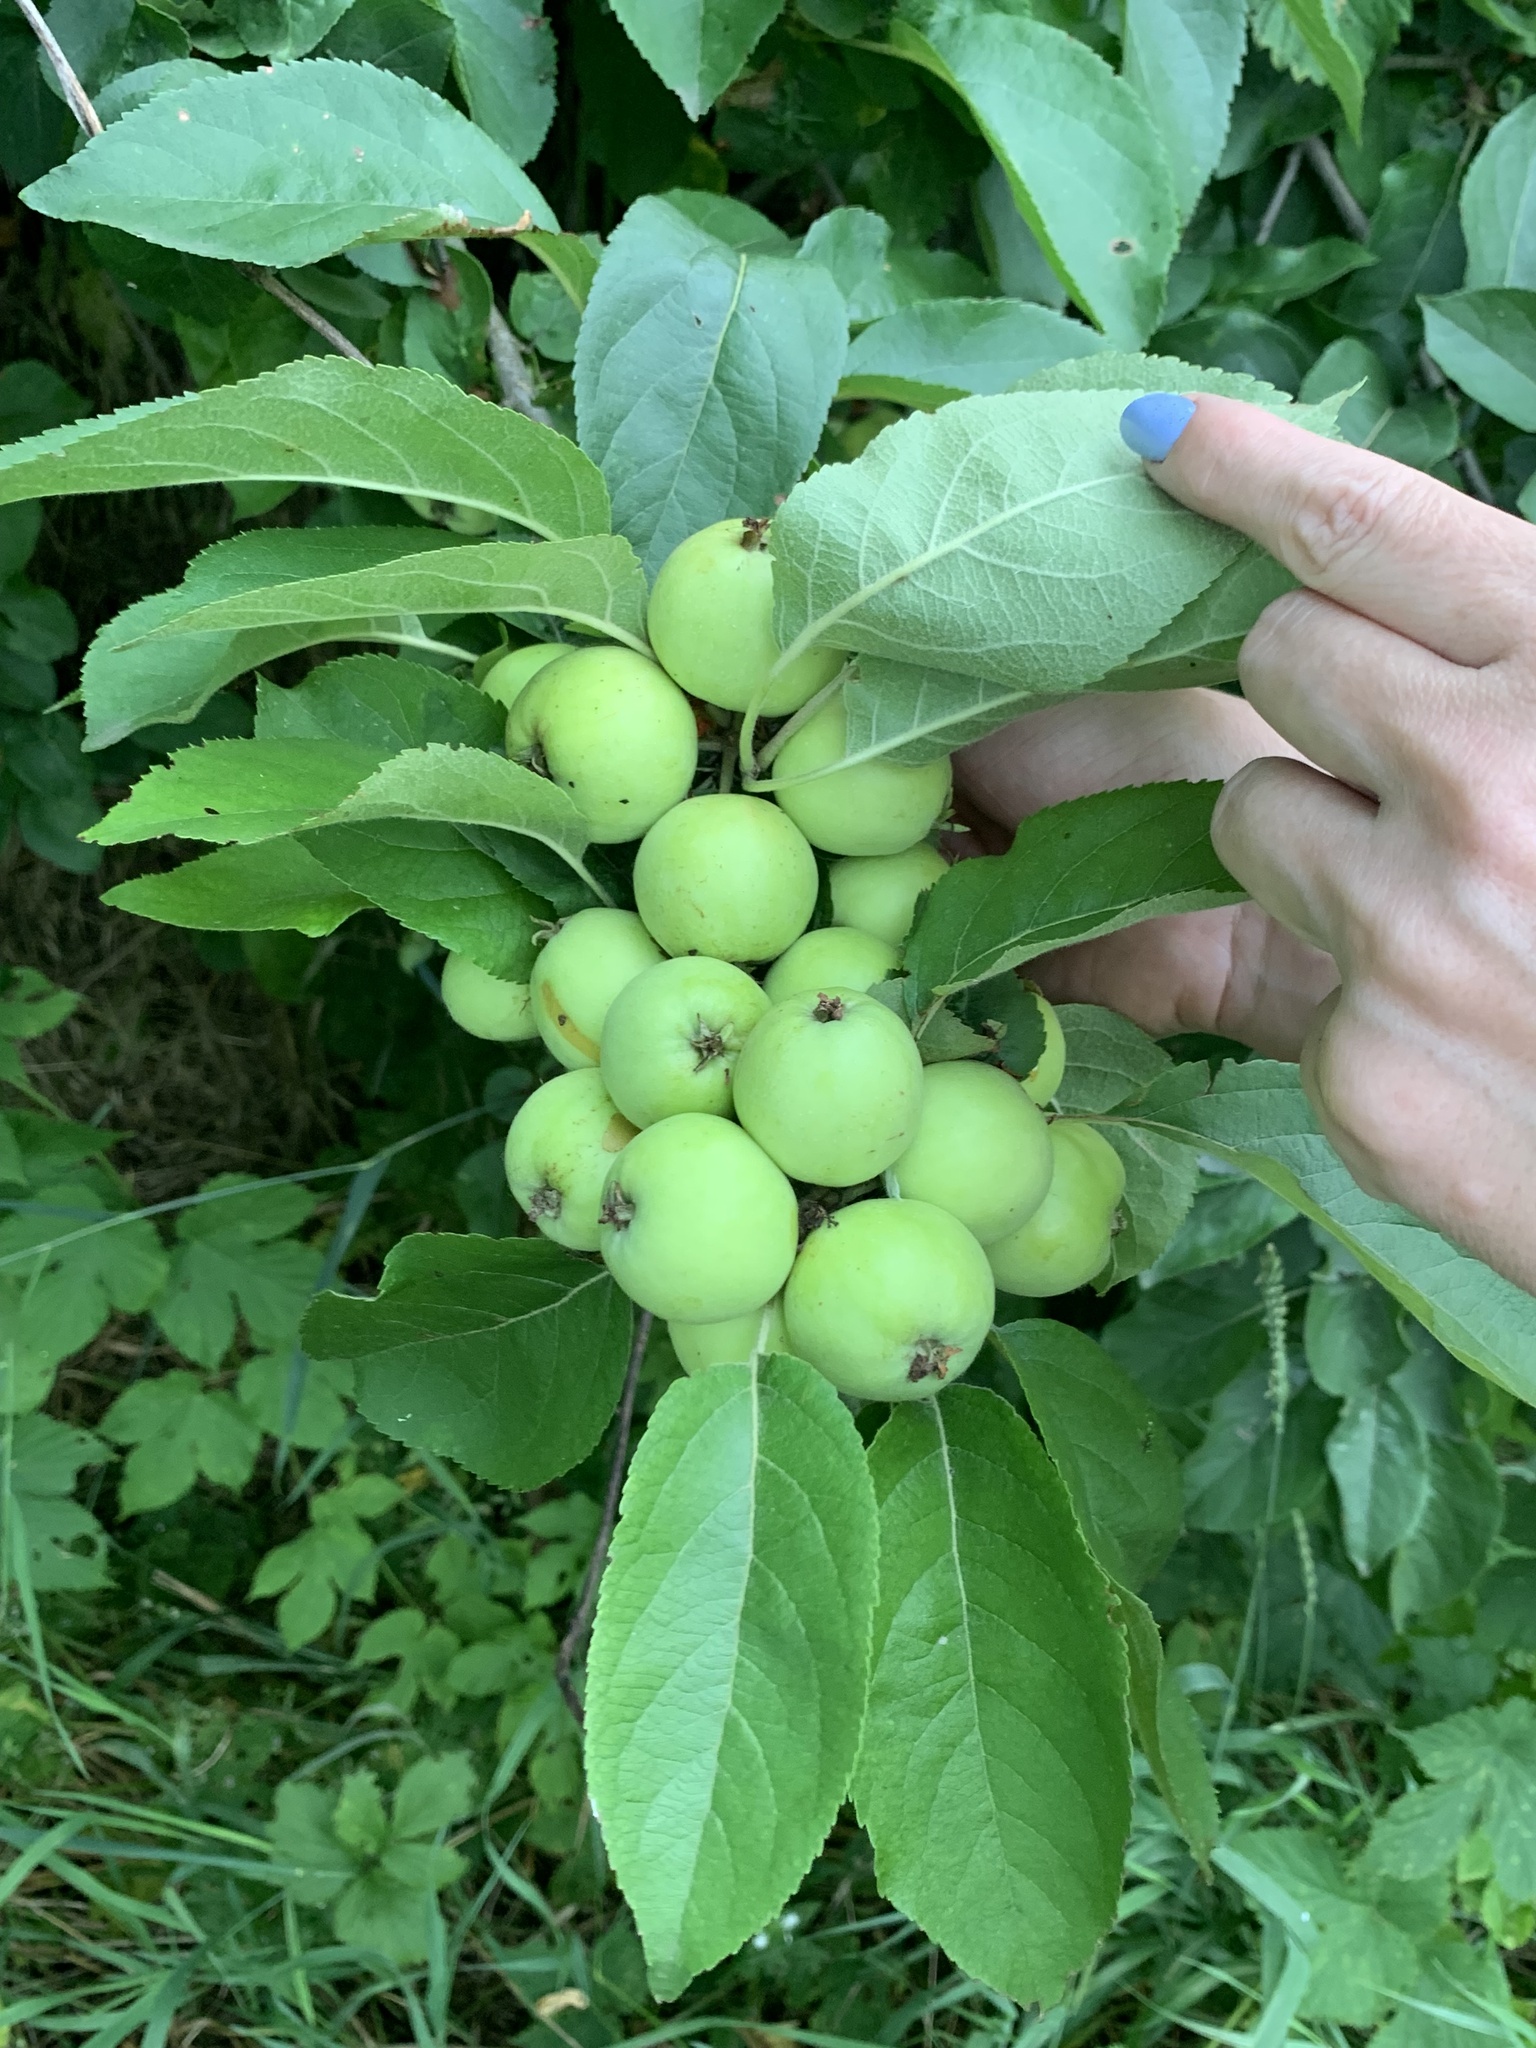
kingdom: Plantae
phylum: Tracheophyta
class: Magnoliopsida
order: Rosales
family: Rosaceae
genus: Malus
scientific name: Malus domestica
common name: Apple
